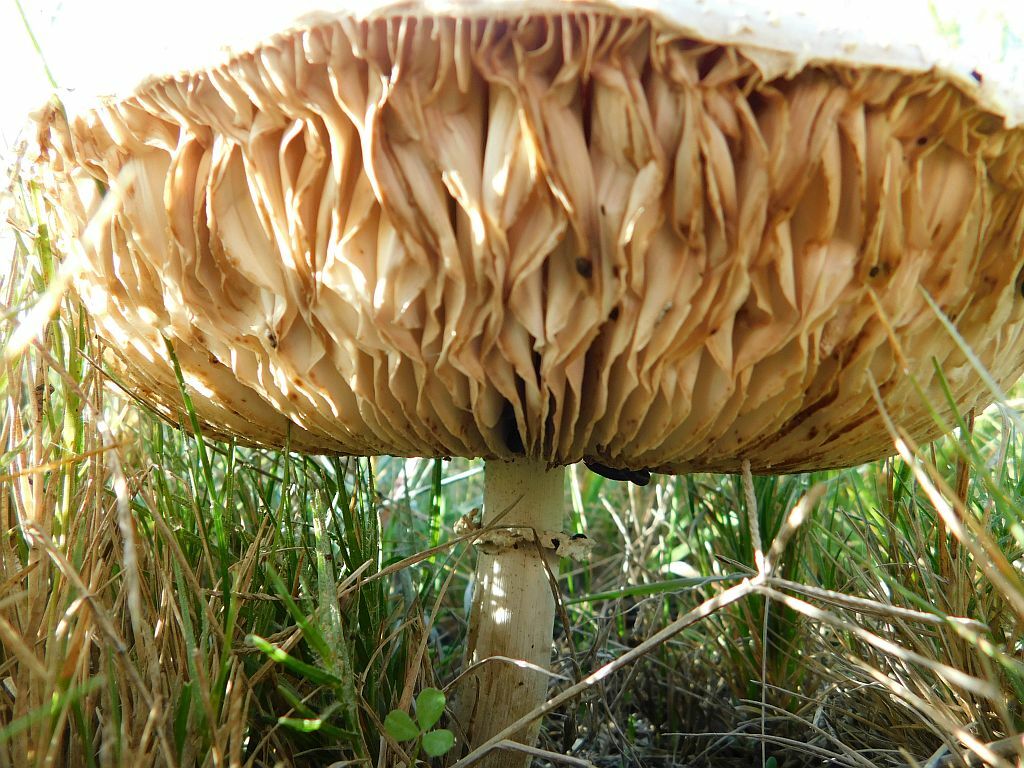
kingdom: Fungi
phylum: Basidiomycota
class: Agaricomycetes
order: Agaricales
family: Agaricaceae
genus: Macrolepiota
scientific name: Macrolepiota zeyheri
